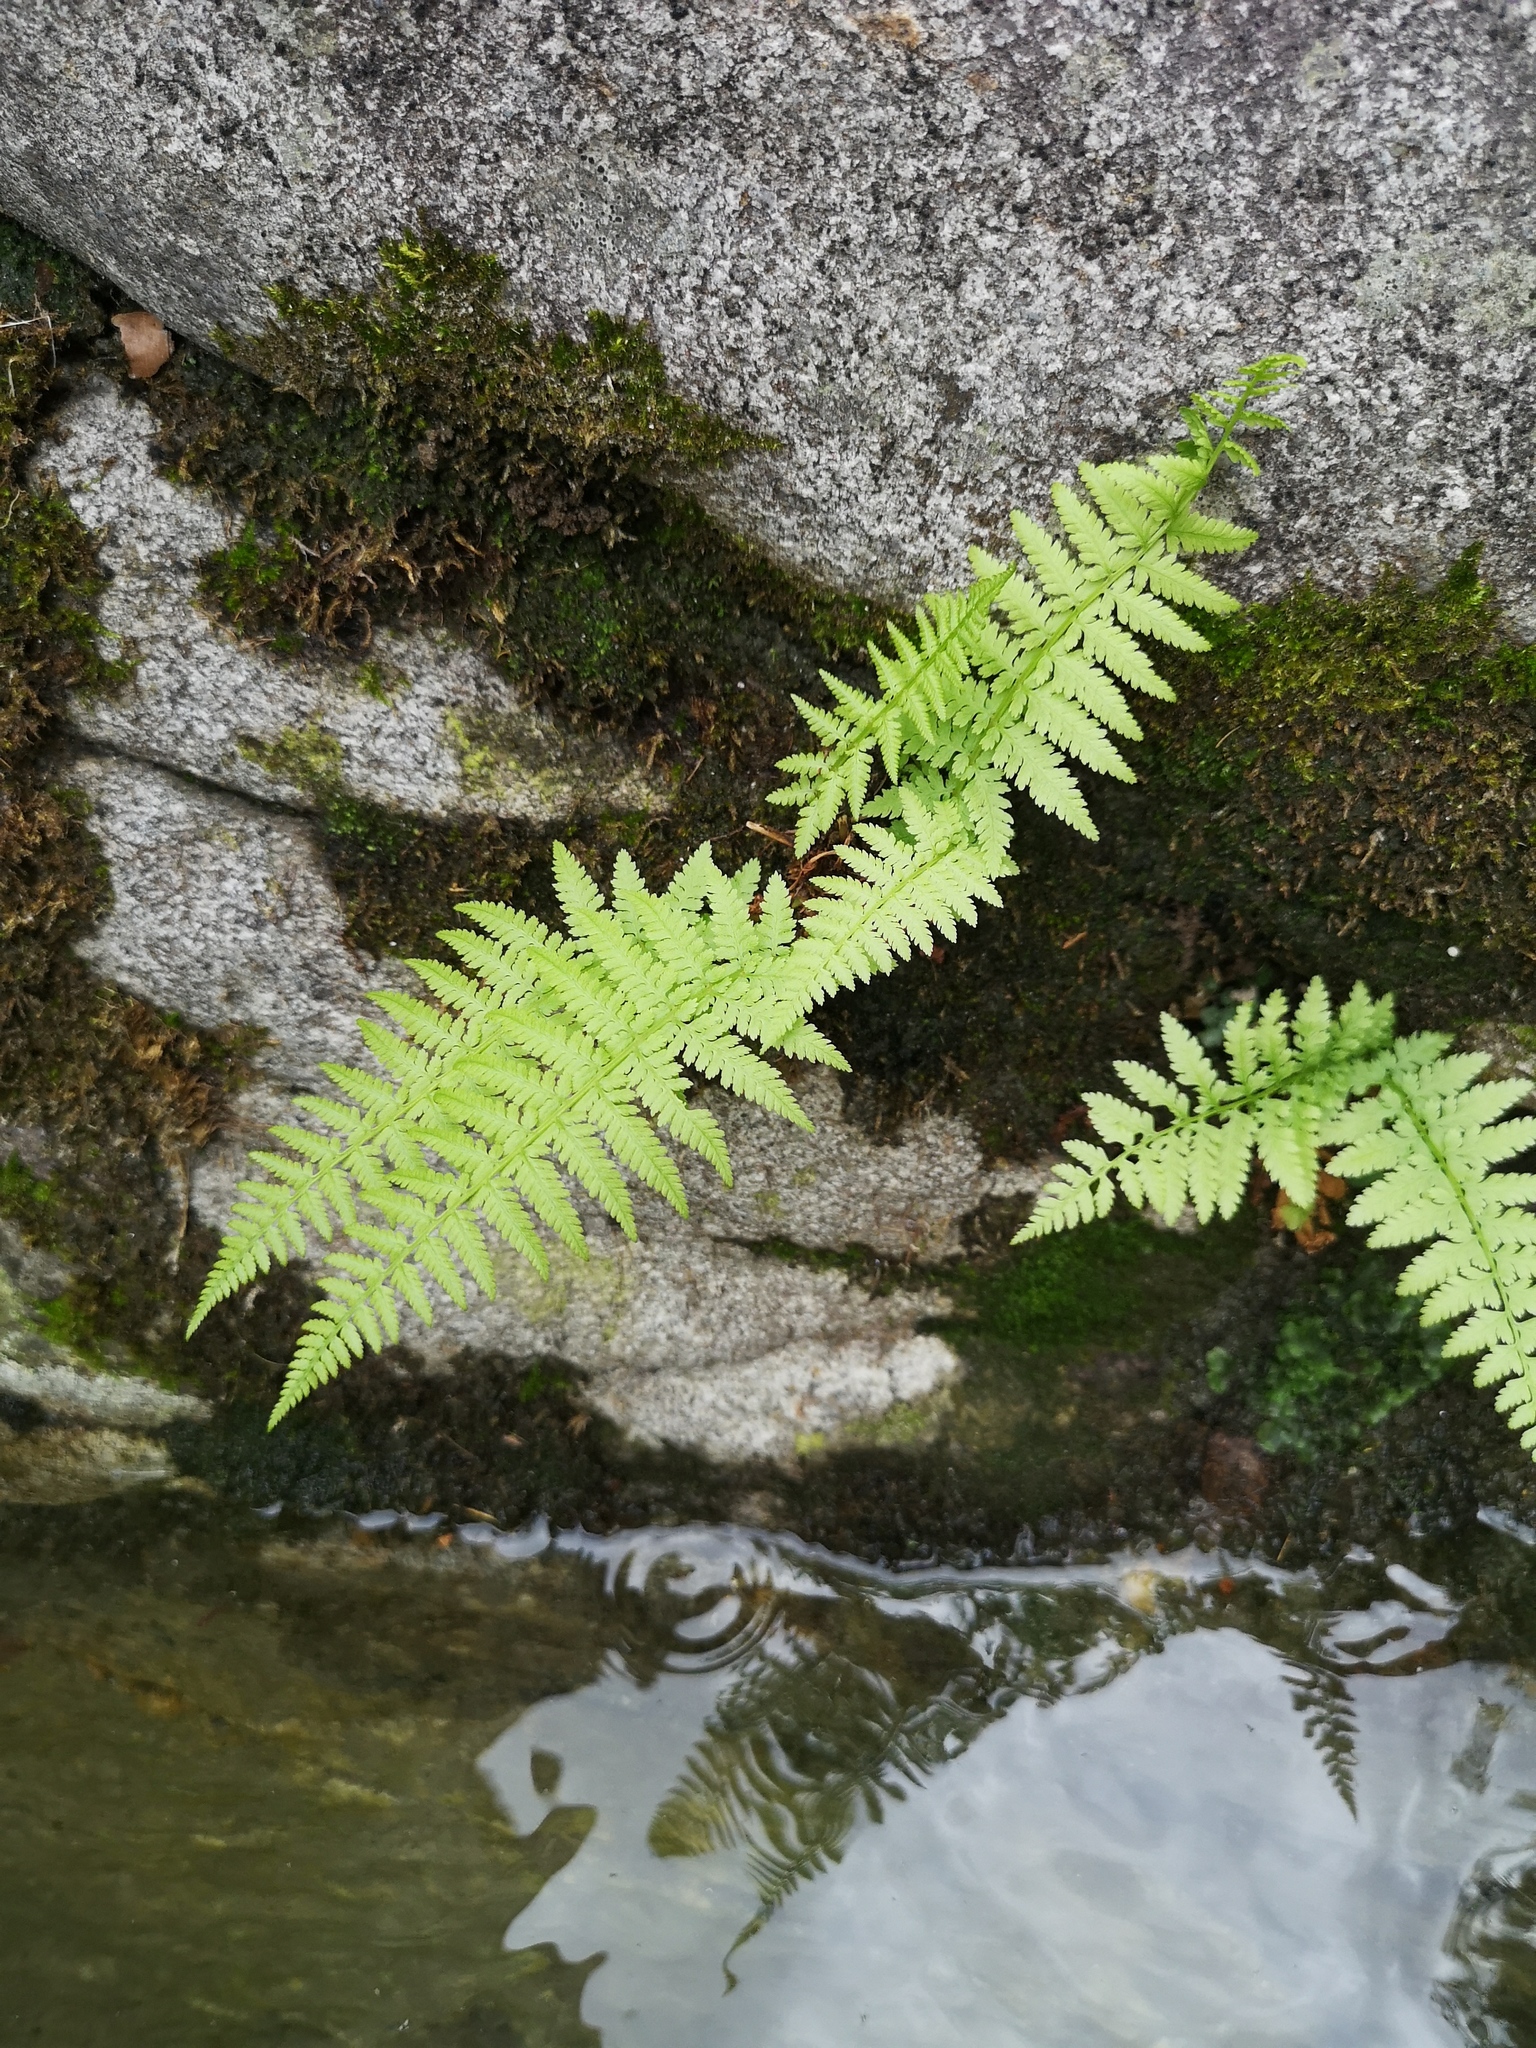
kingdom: Plantae
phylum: Tracheophyta
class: Polypodiopsida
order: Polypodiales
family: Athyriaceae
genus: Athyrium
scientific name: Athyrium filix-femina
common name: Lady fern
